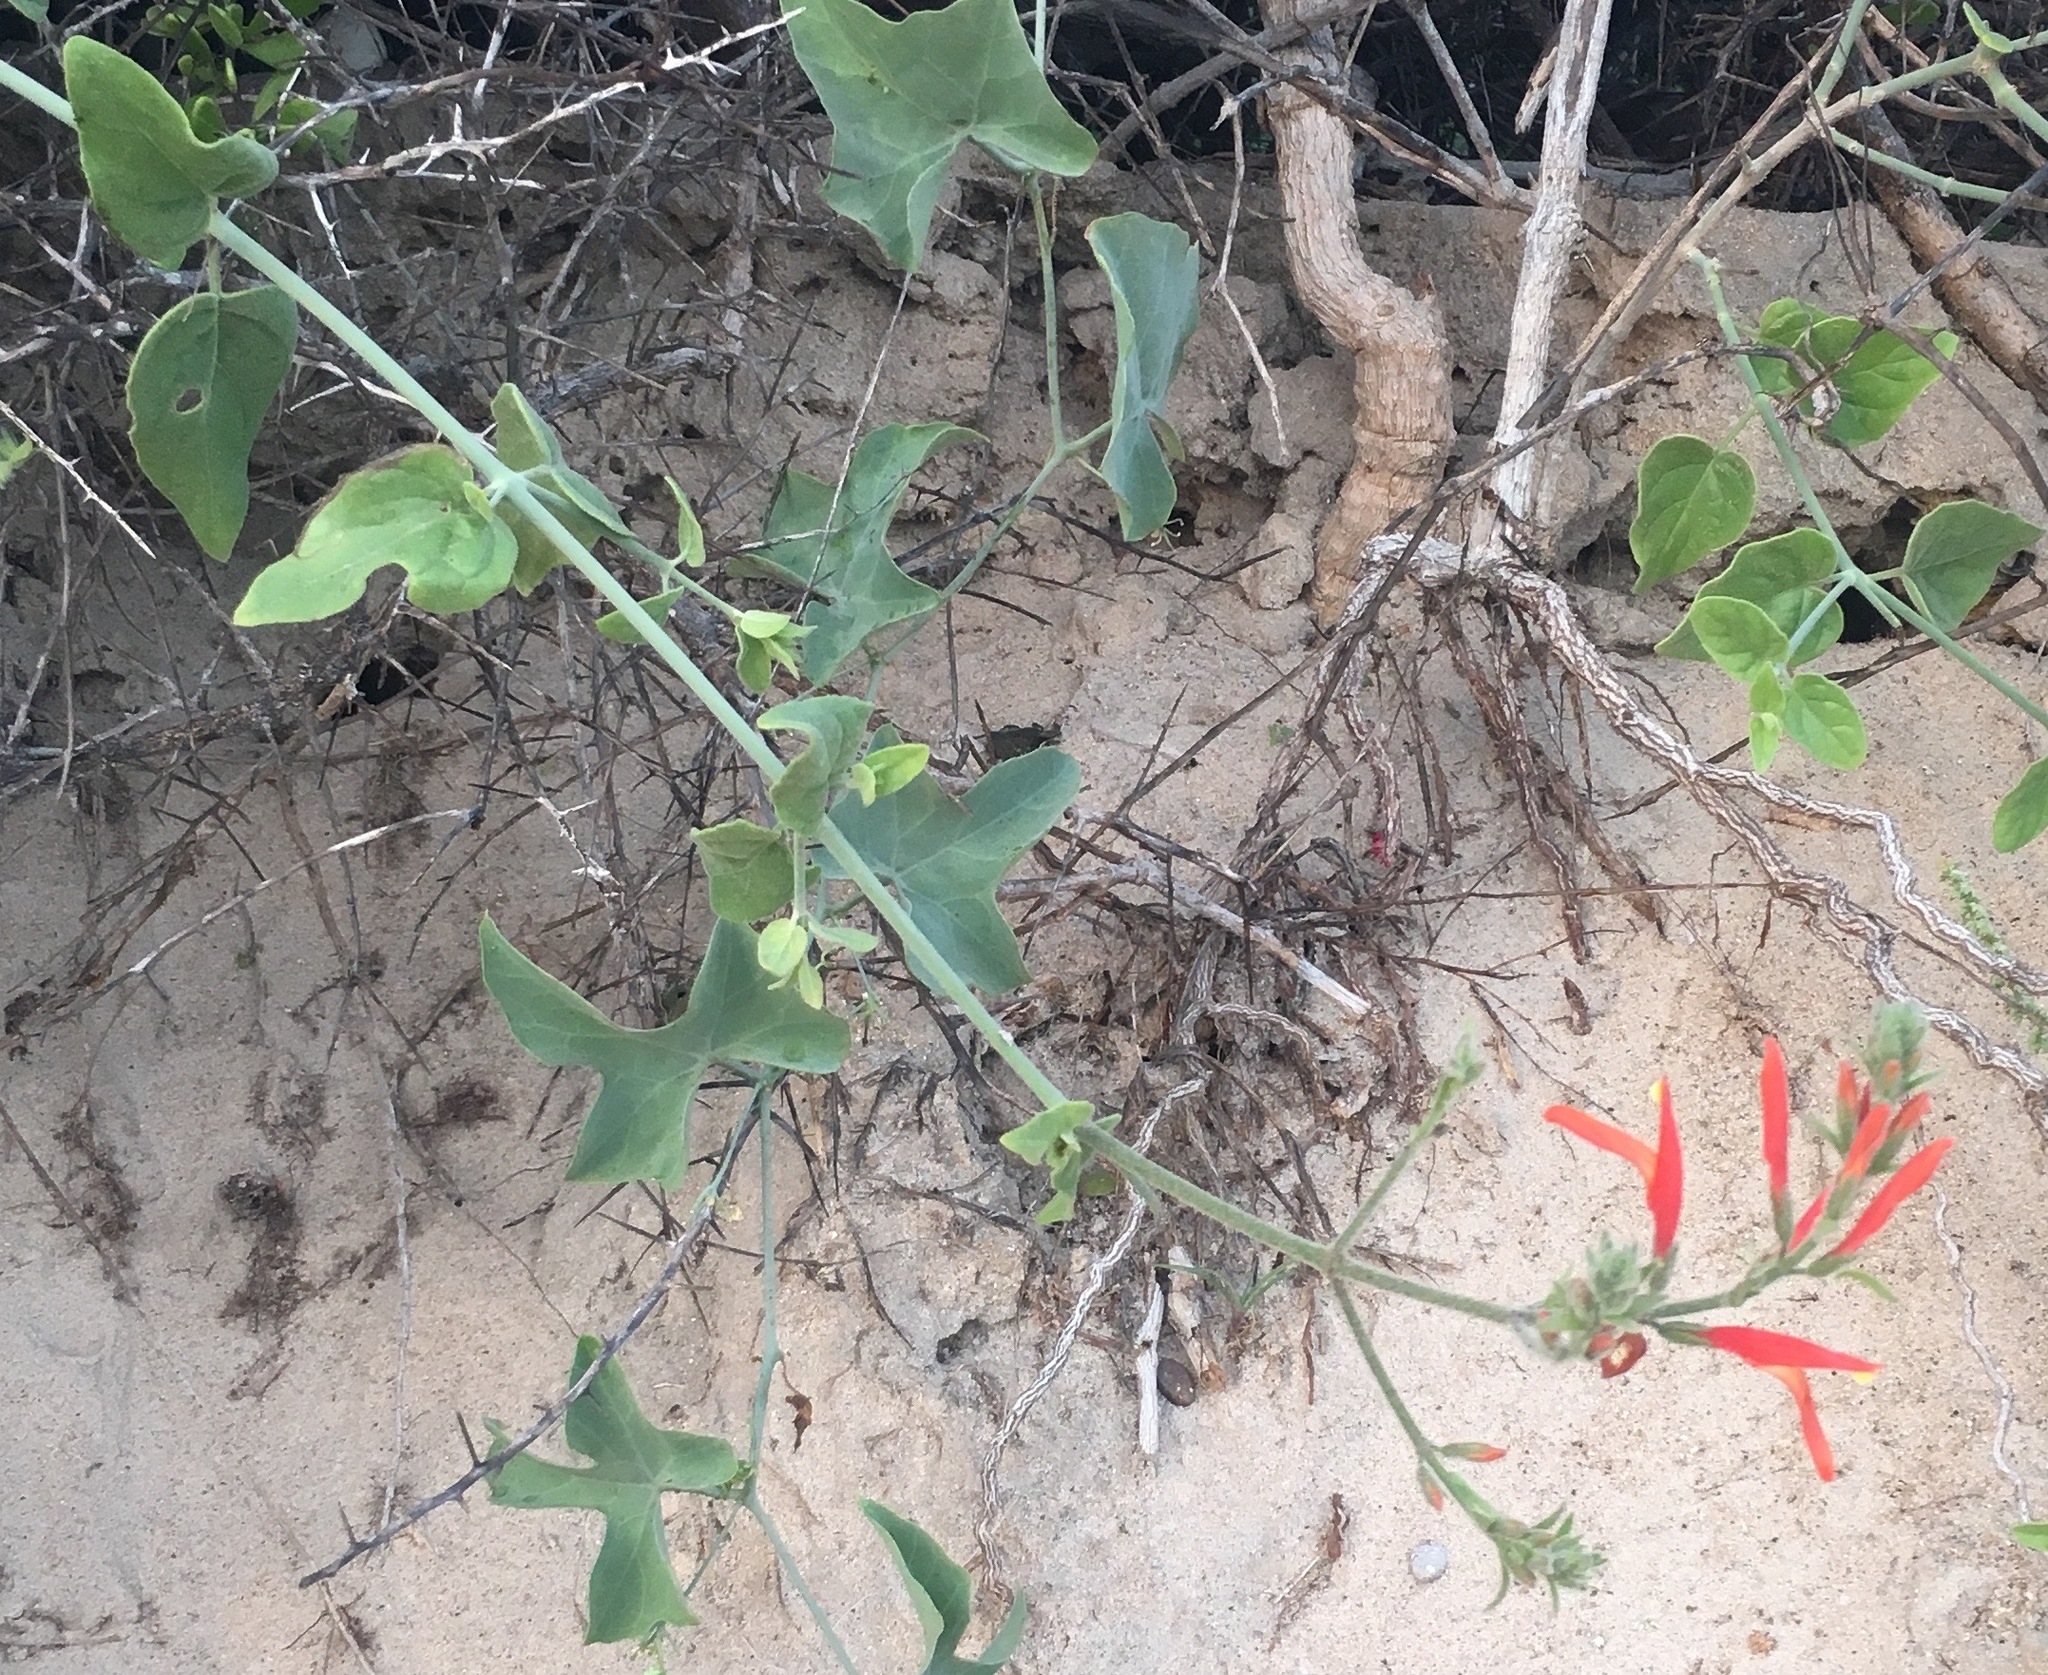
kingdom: Plantae
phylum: Tracheophyta
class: Magnoliopsida
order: Lamiales
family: Acanthaceae
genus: Justicia
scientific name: Justicia californica
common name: Chuparosa-honeysuckle
